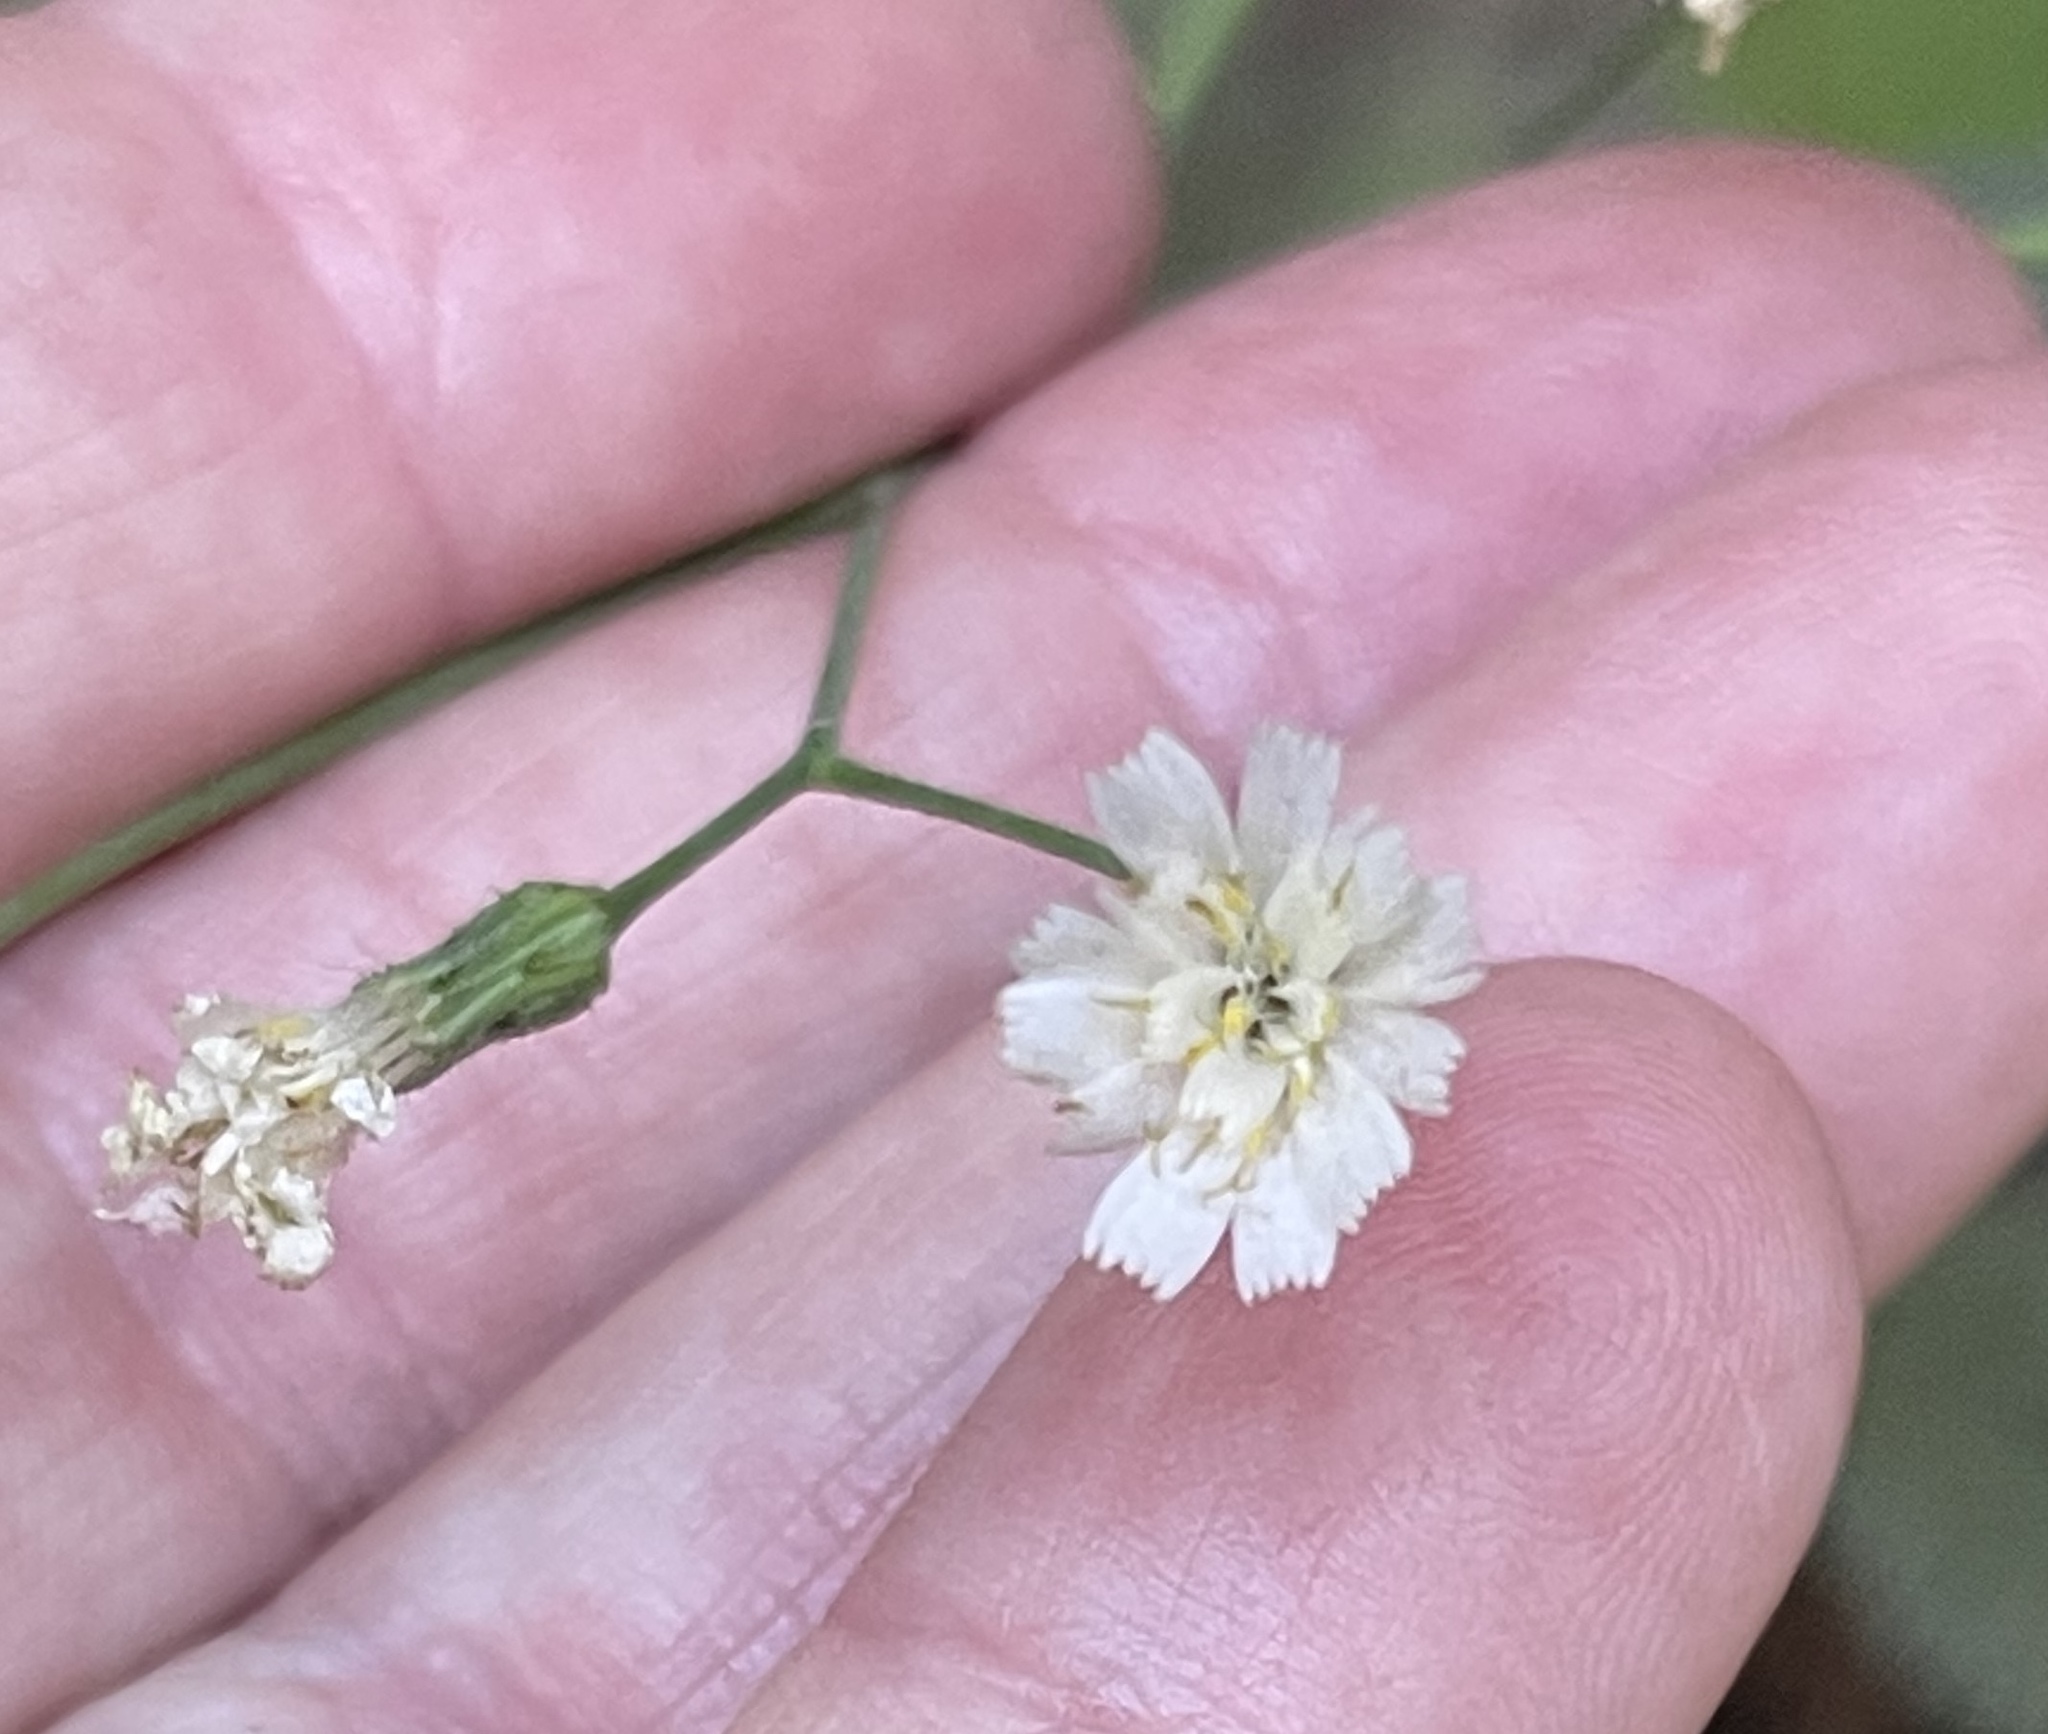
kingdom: Plantae
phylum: Tracheophyta
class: Magnoliopsida
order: Asterales
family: Asteraceae
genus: Hieracium
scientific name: Hieracium albiflorum
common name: White hawkweed
